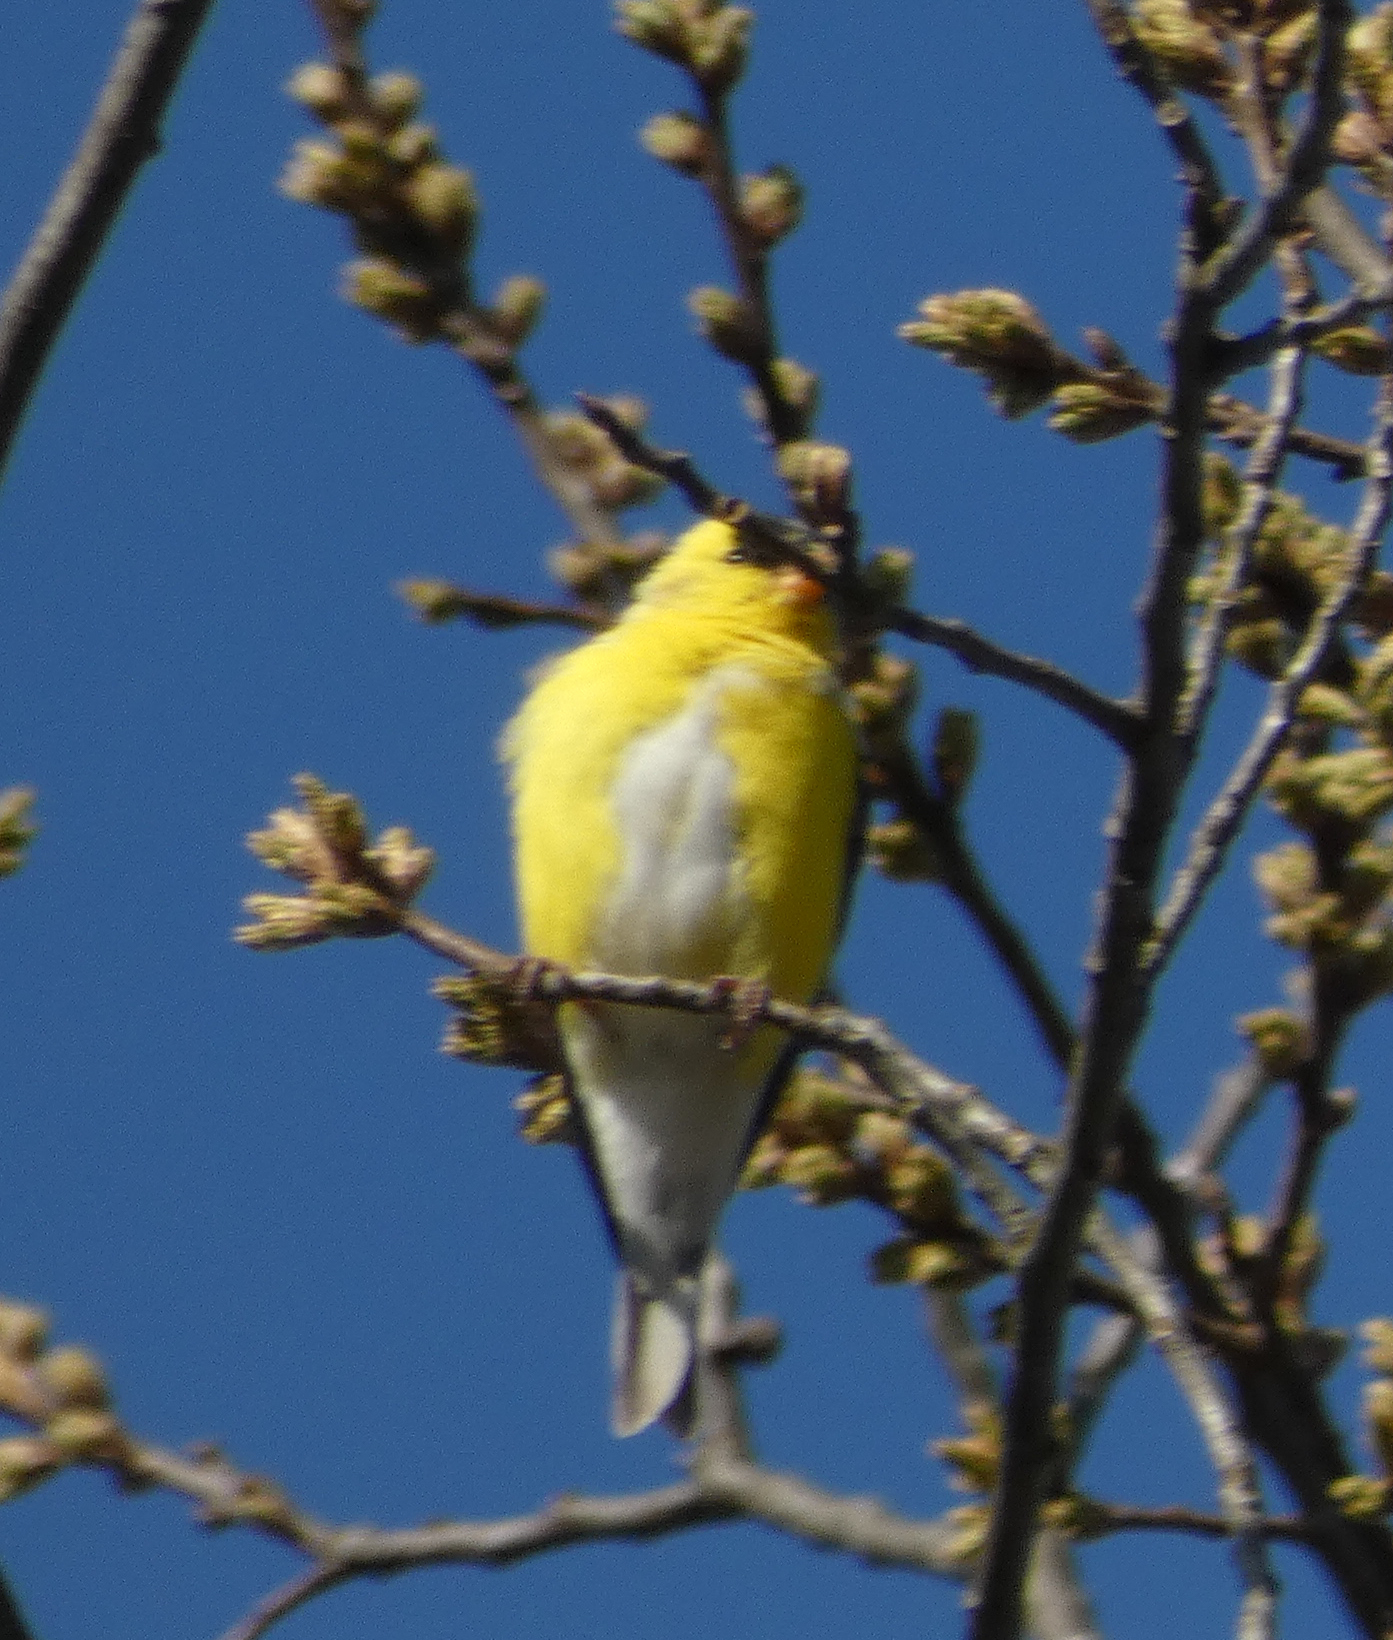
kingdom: Animalia
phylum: Chordata
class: Aves
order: Passeriformes
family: Fringillidae
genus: Spinus
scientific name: Spinus tristis
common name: American goldfinch
